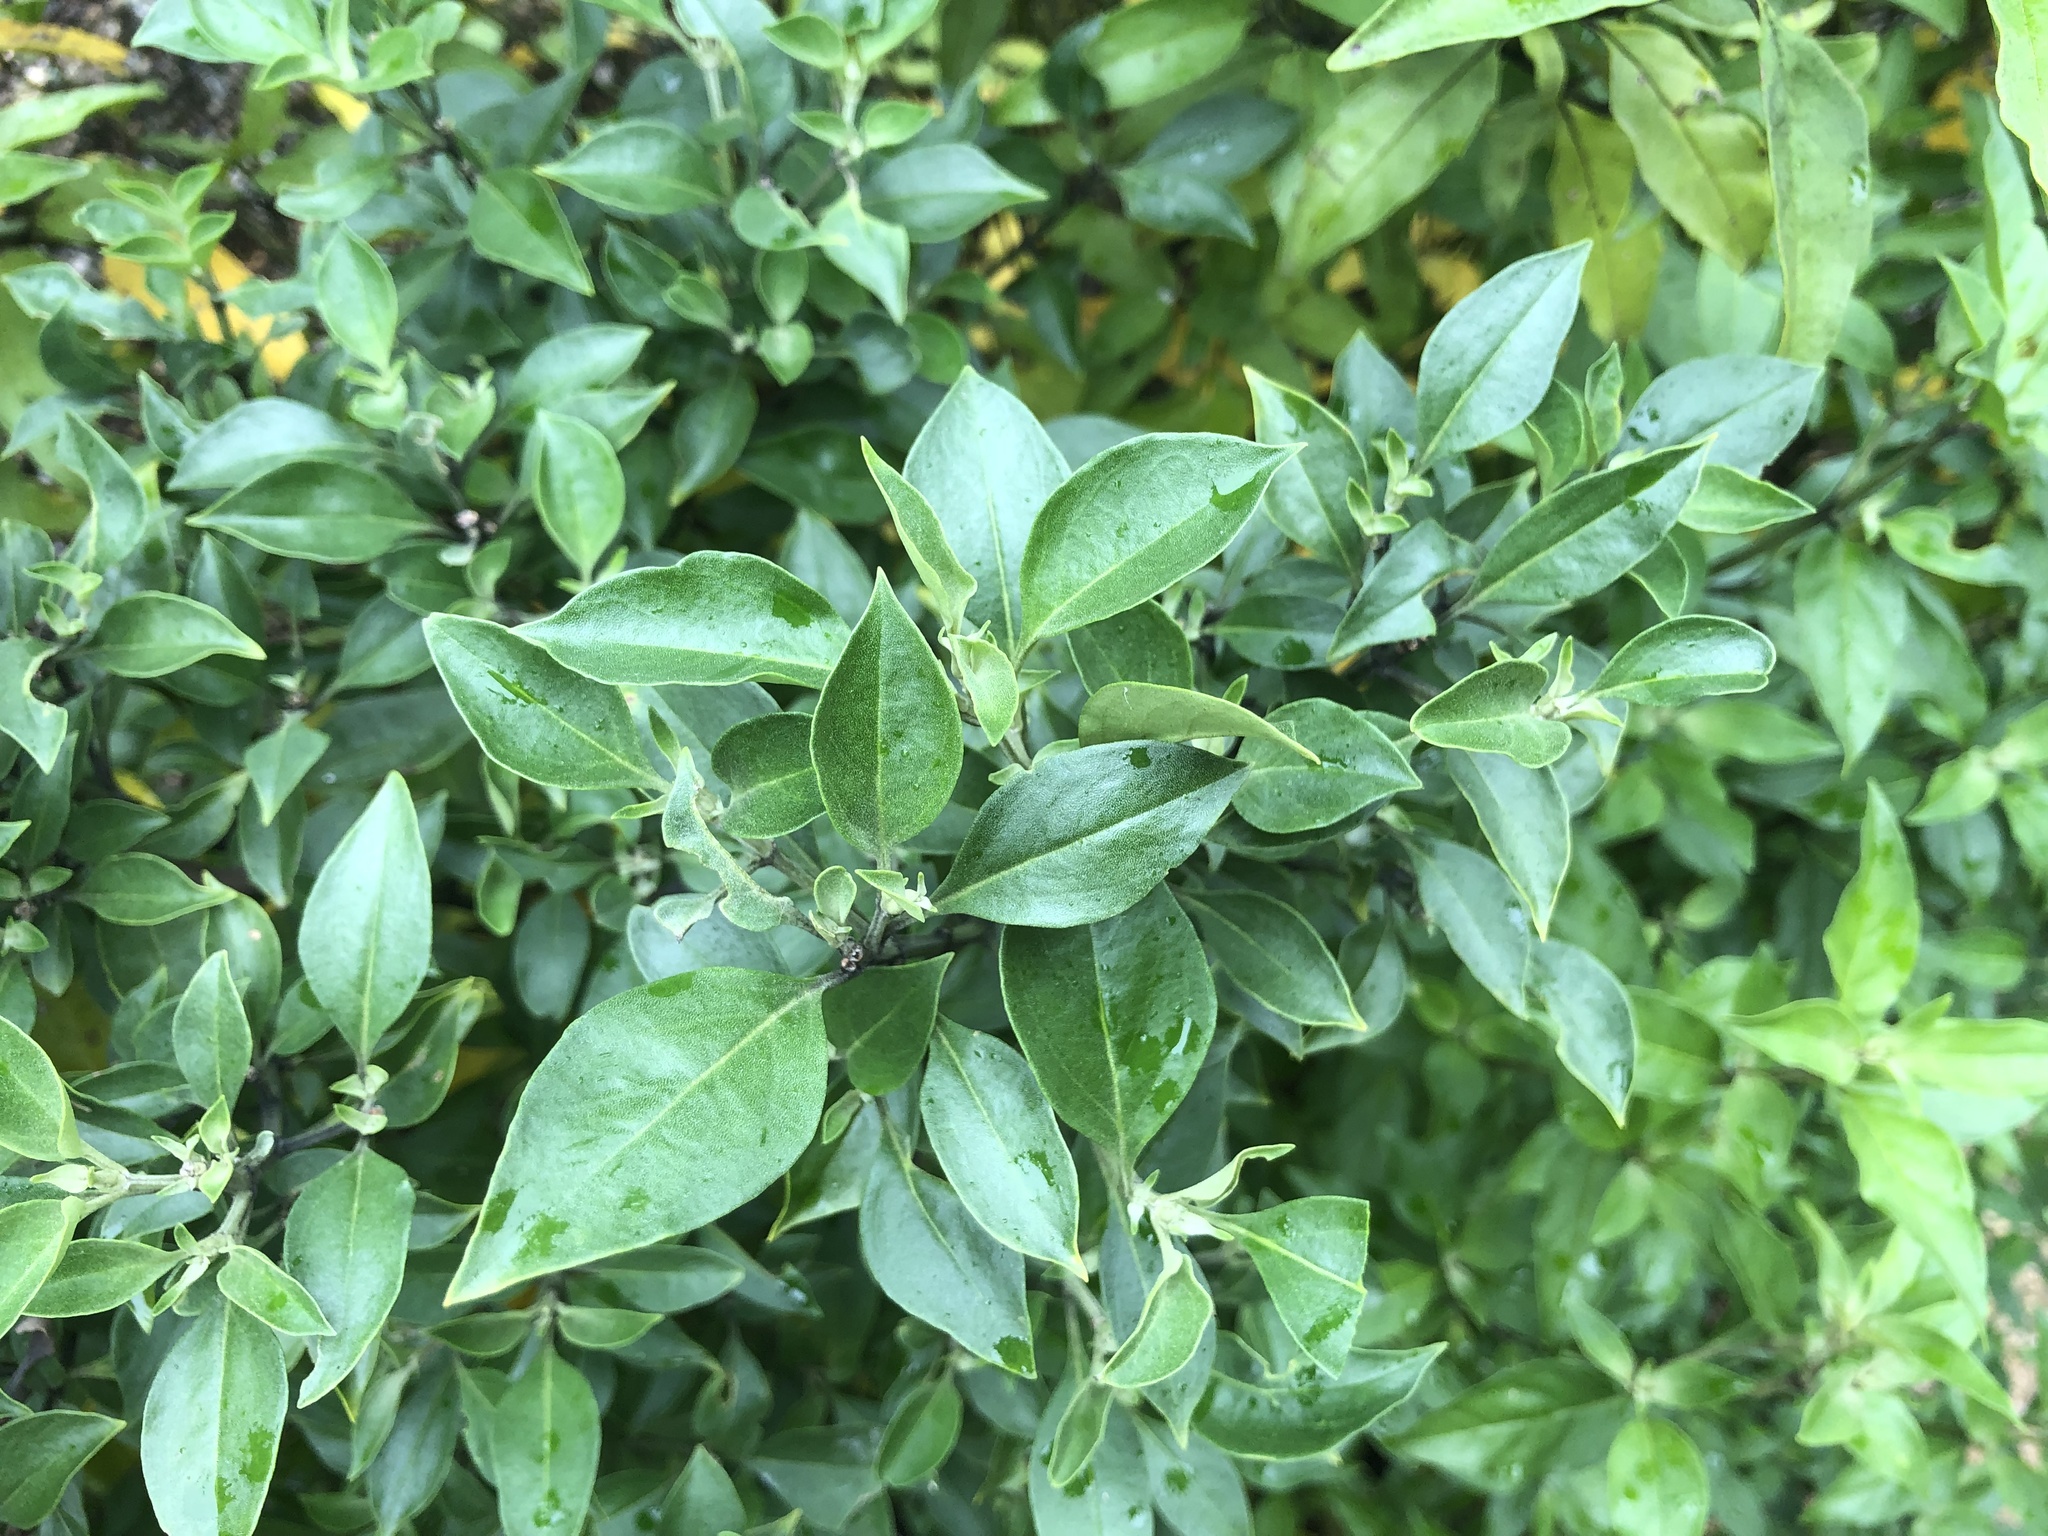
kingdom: Plantae
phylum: Tracheophyta
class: Magnoliopsida
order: Lamiales
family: Lamiaceae
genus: Prostanthera
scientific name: Prostanthera petraea
